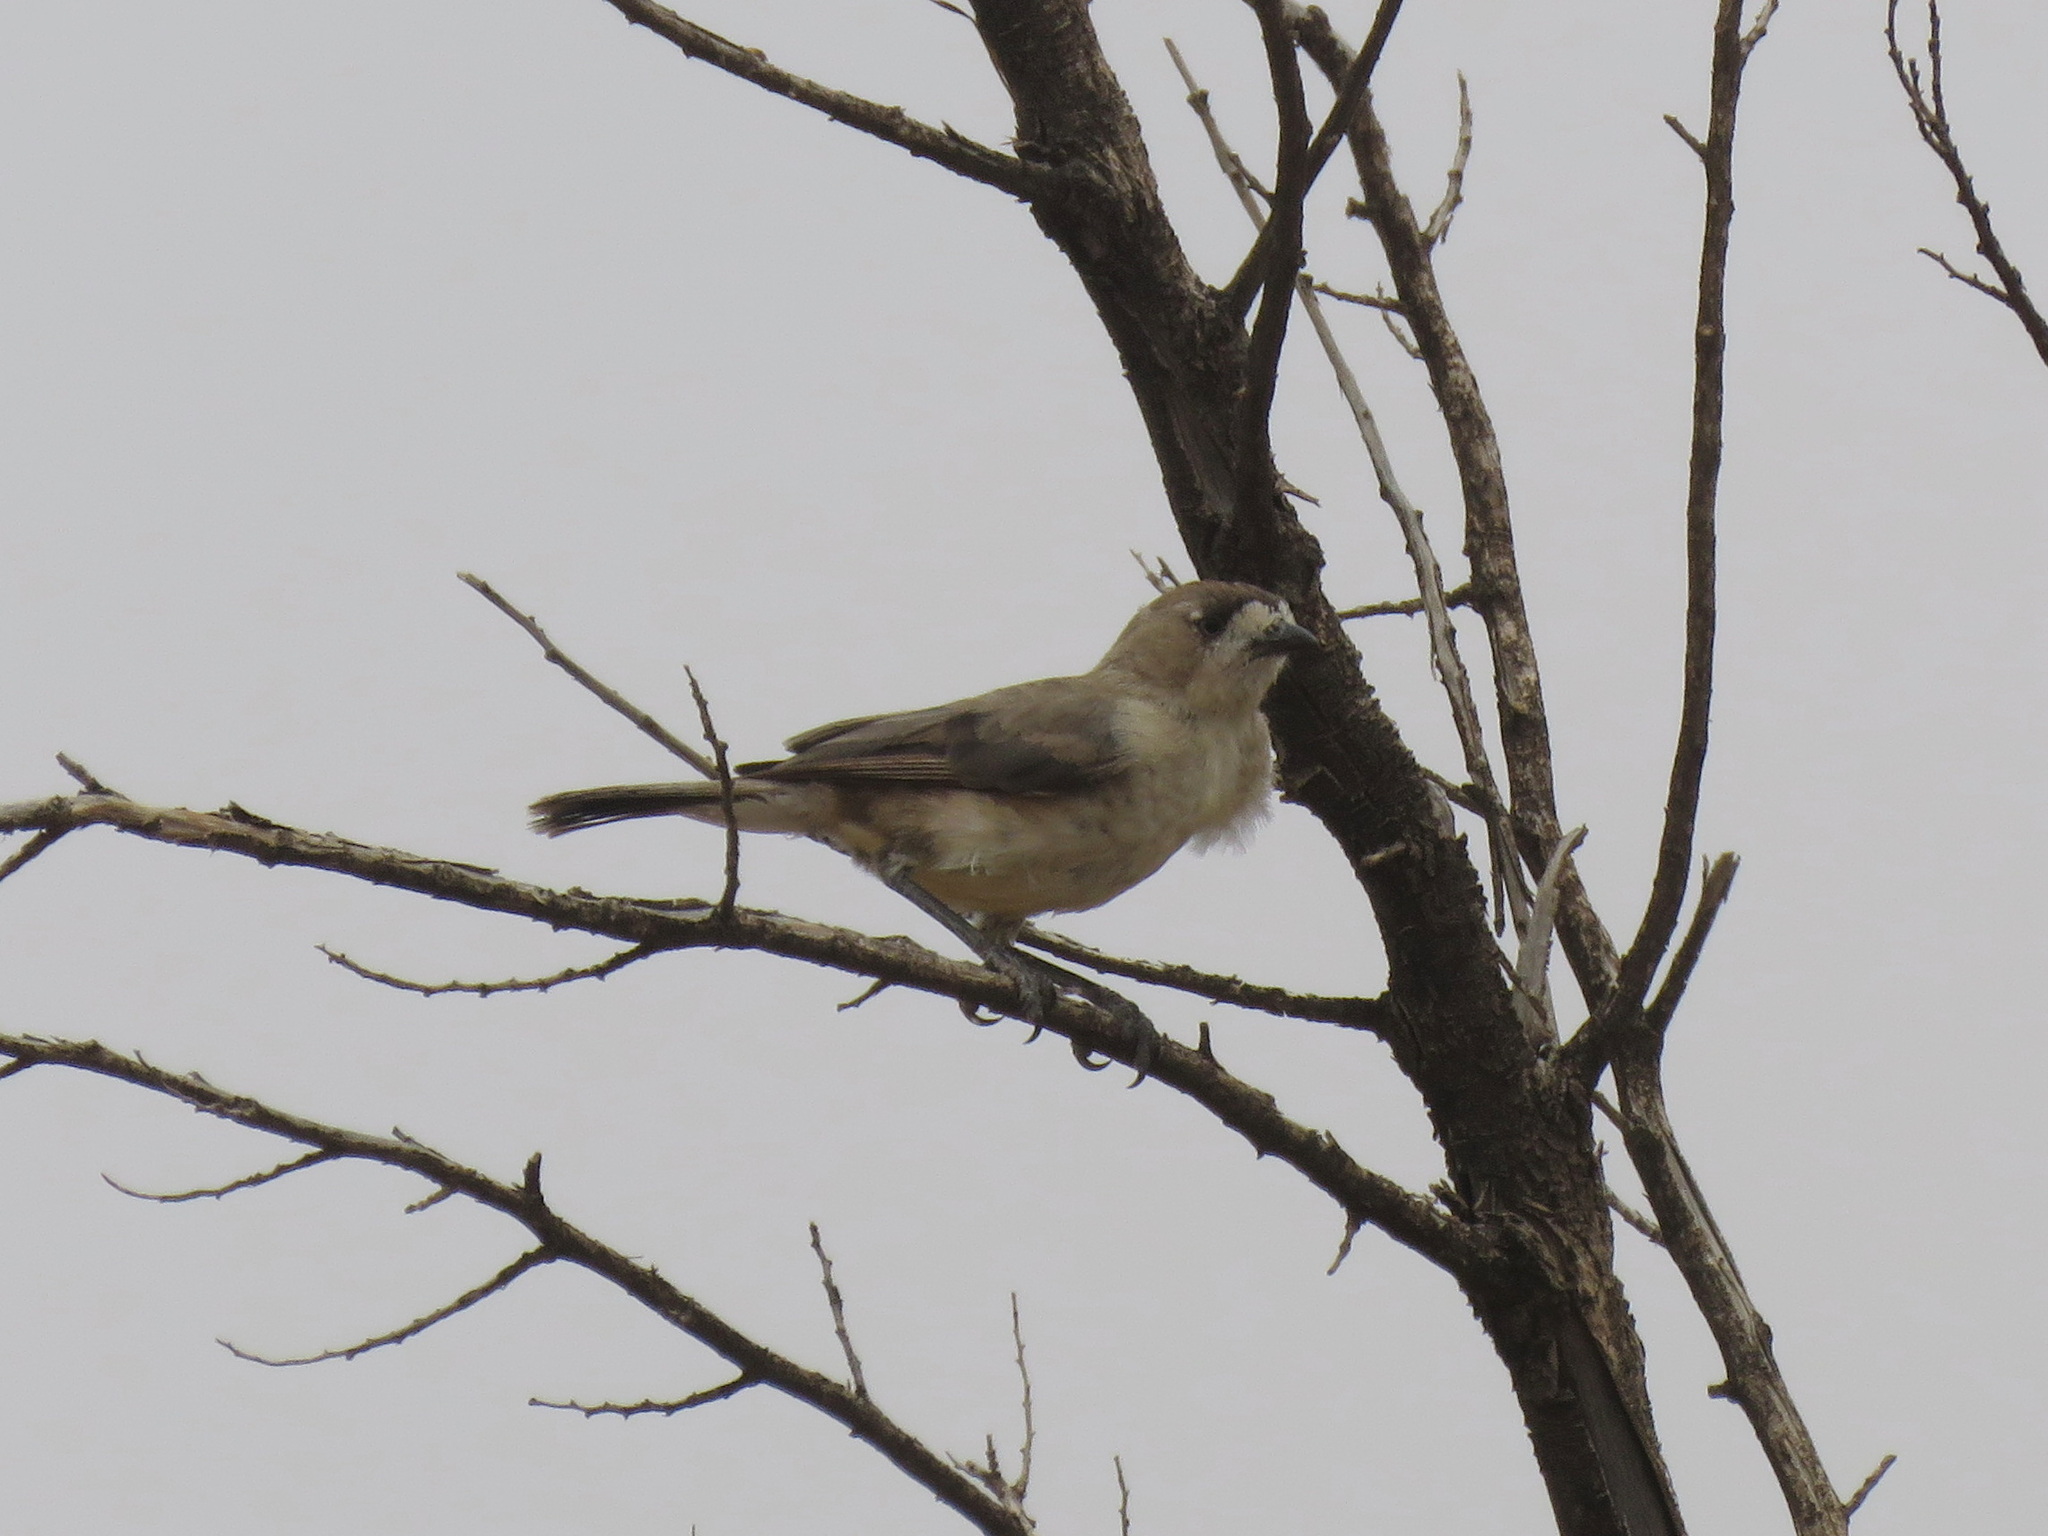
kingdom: Animalia
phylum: Chordata
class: Aves
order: Passeriformes
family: Acanthizidae
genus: Aphelocephala
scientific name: Aphelocephala leucopsis
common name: Southern whiteface
